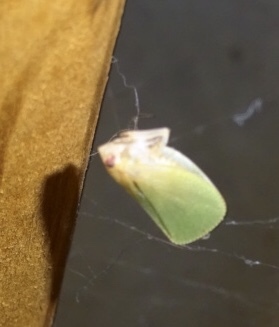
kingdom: Animalia
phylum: Arthropoda
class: Insecta
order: Hemiptera
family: Acanaloniidae
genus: Acanalonia
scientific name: Acanalonia conica
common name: Green cone-headed planthopper
